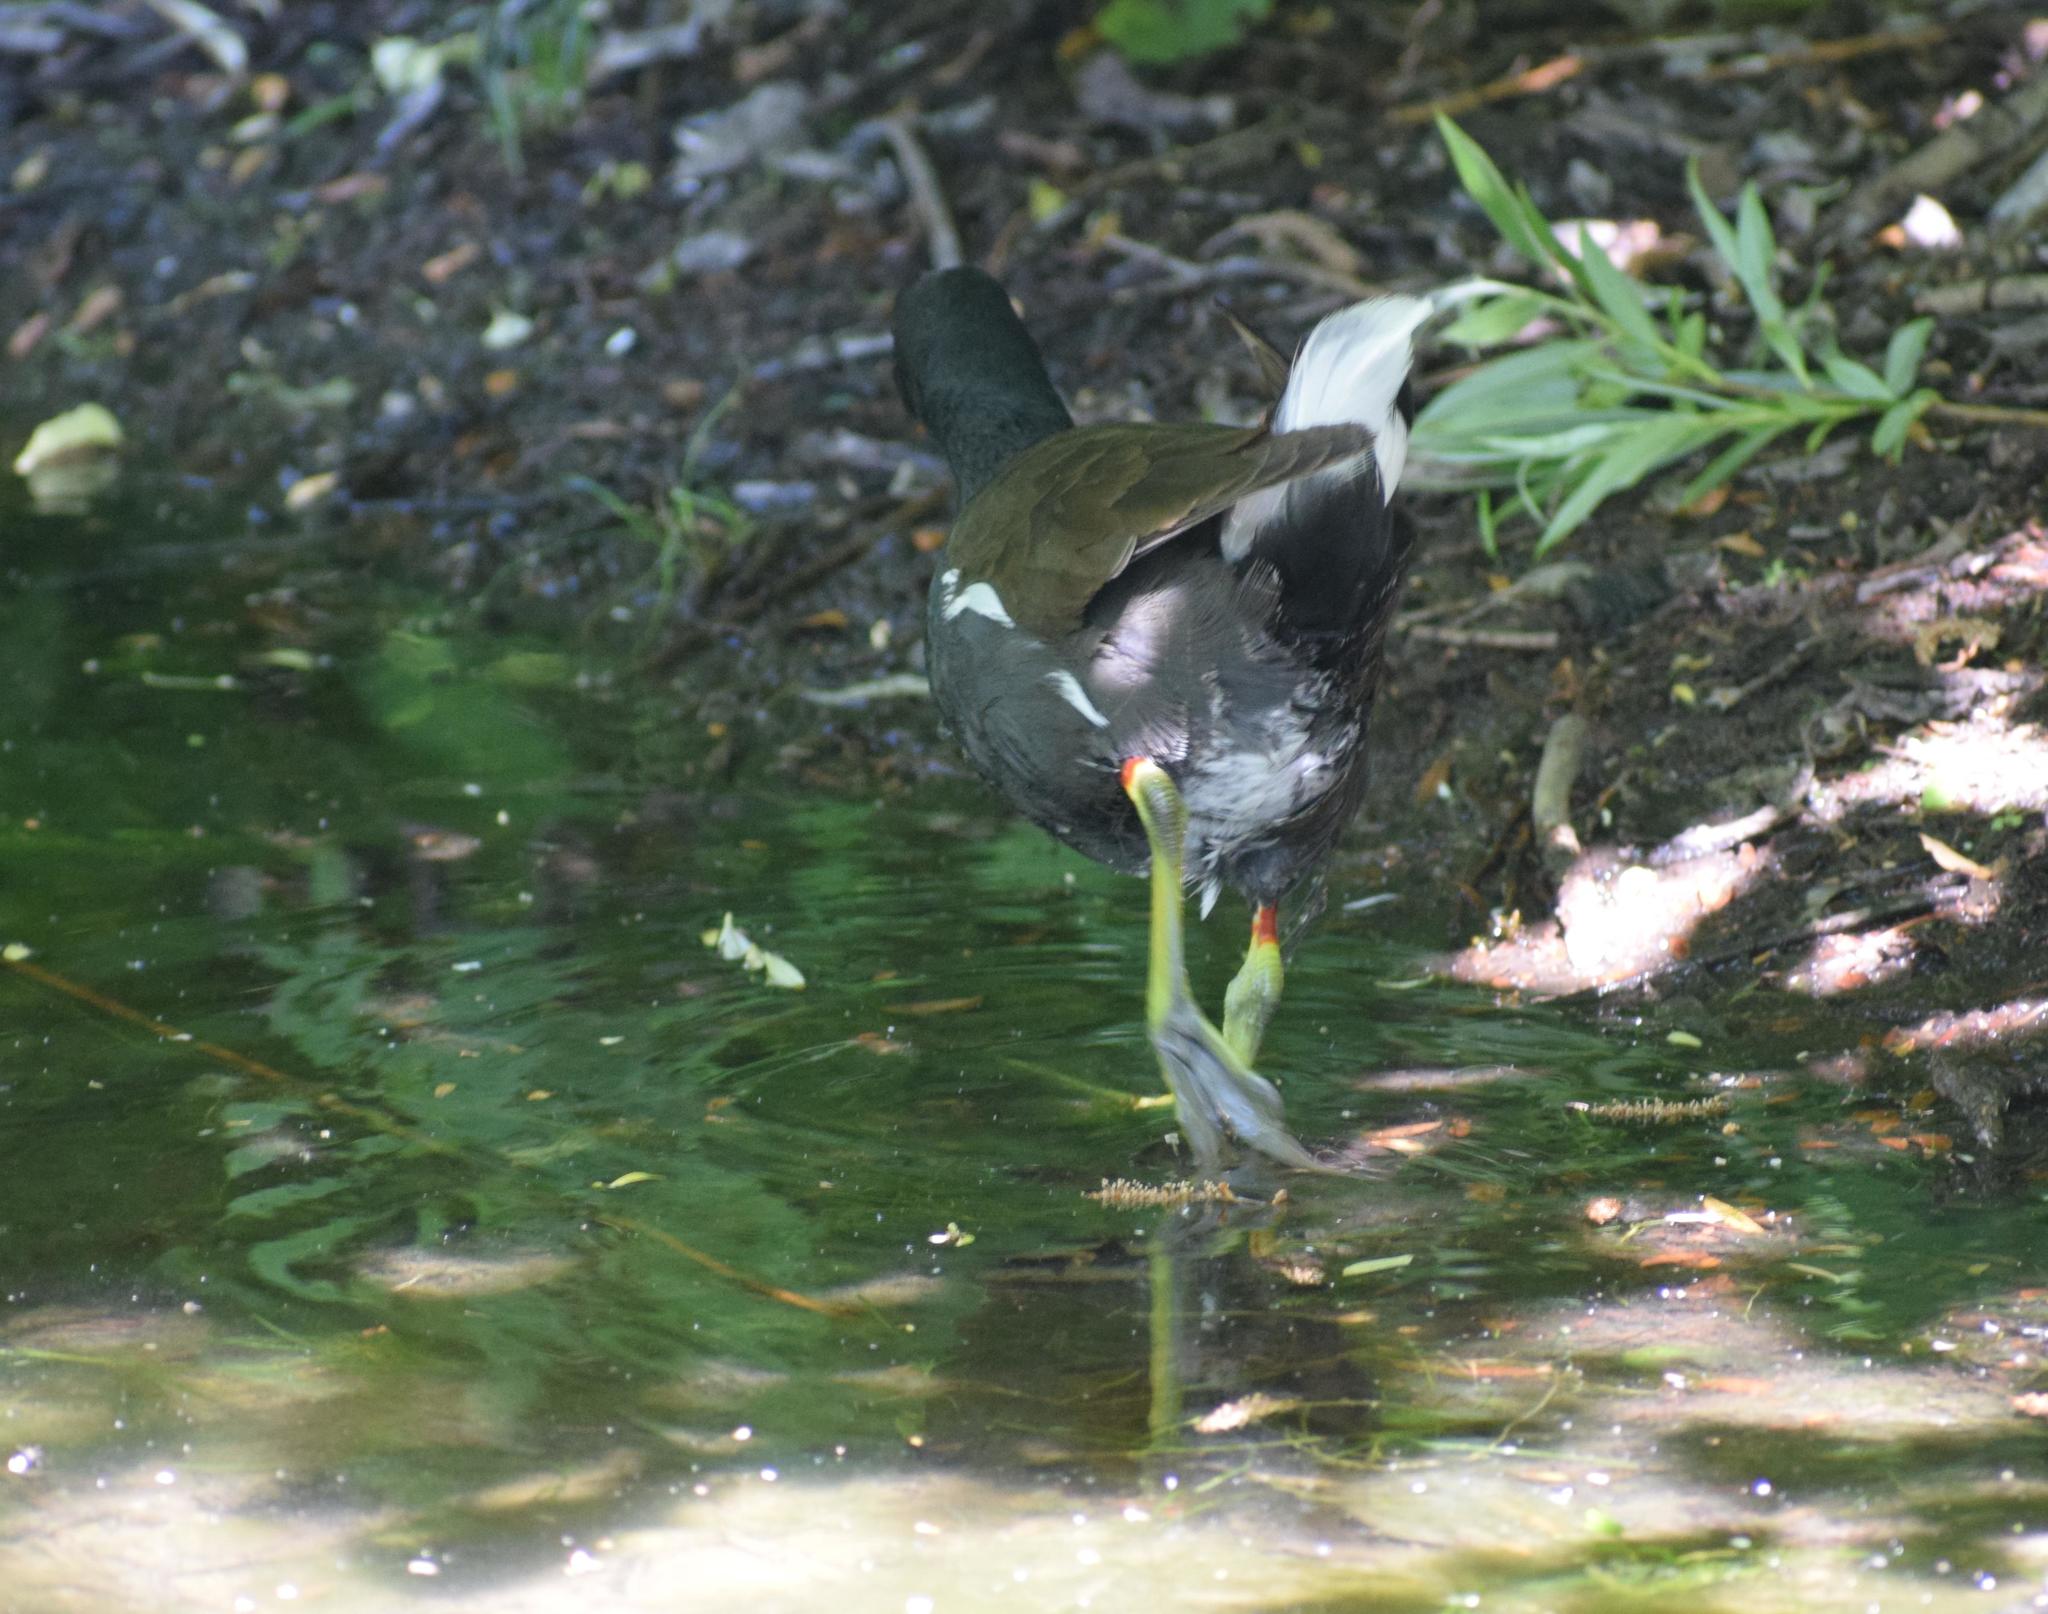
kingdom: Animalia
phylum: Chordata
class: Aves
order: Gruiformes
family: Rallidae
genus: Gallinula
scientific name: Gallinula chloropus
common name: Common moorhen
